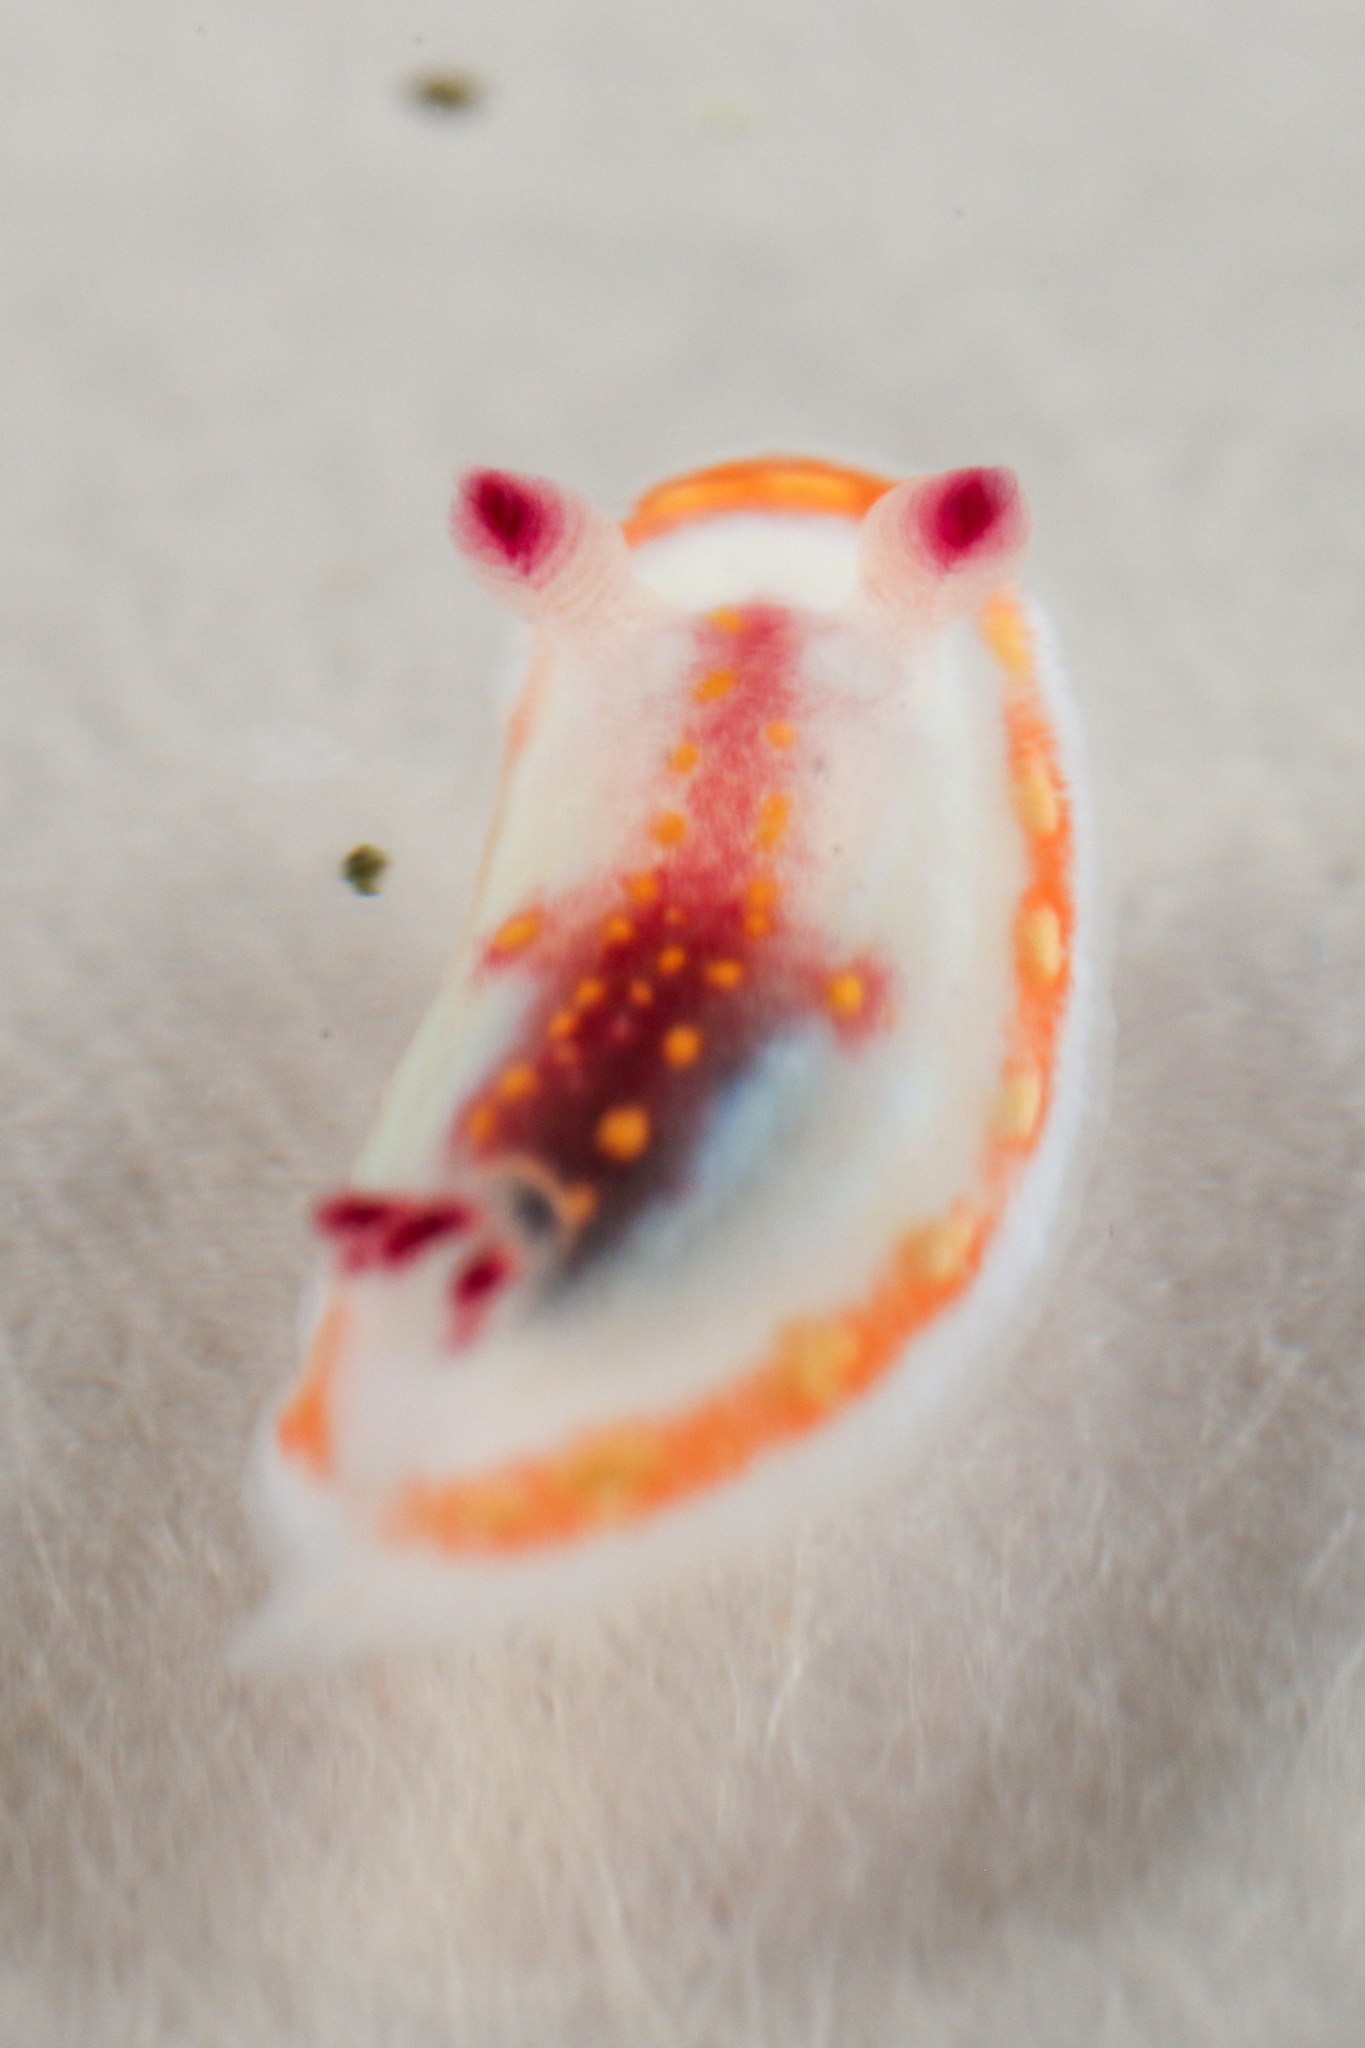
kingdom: Animalia
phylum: Mollusca
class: Gastropoda
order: Nudibranchia
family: Chromodorididae
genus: Felimida
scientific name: Felimida sphoni
